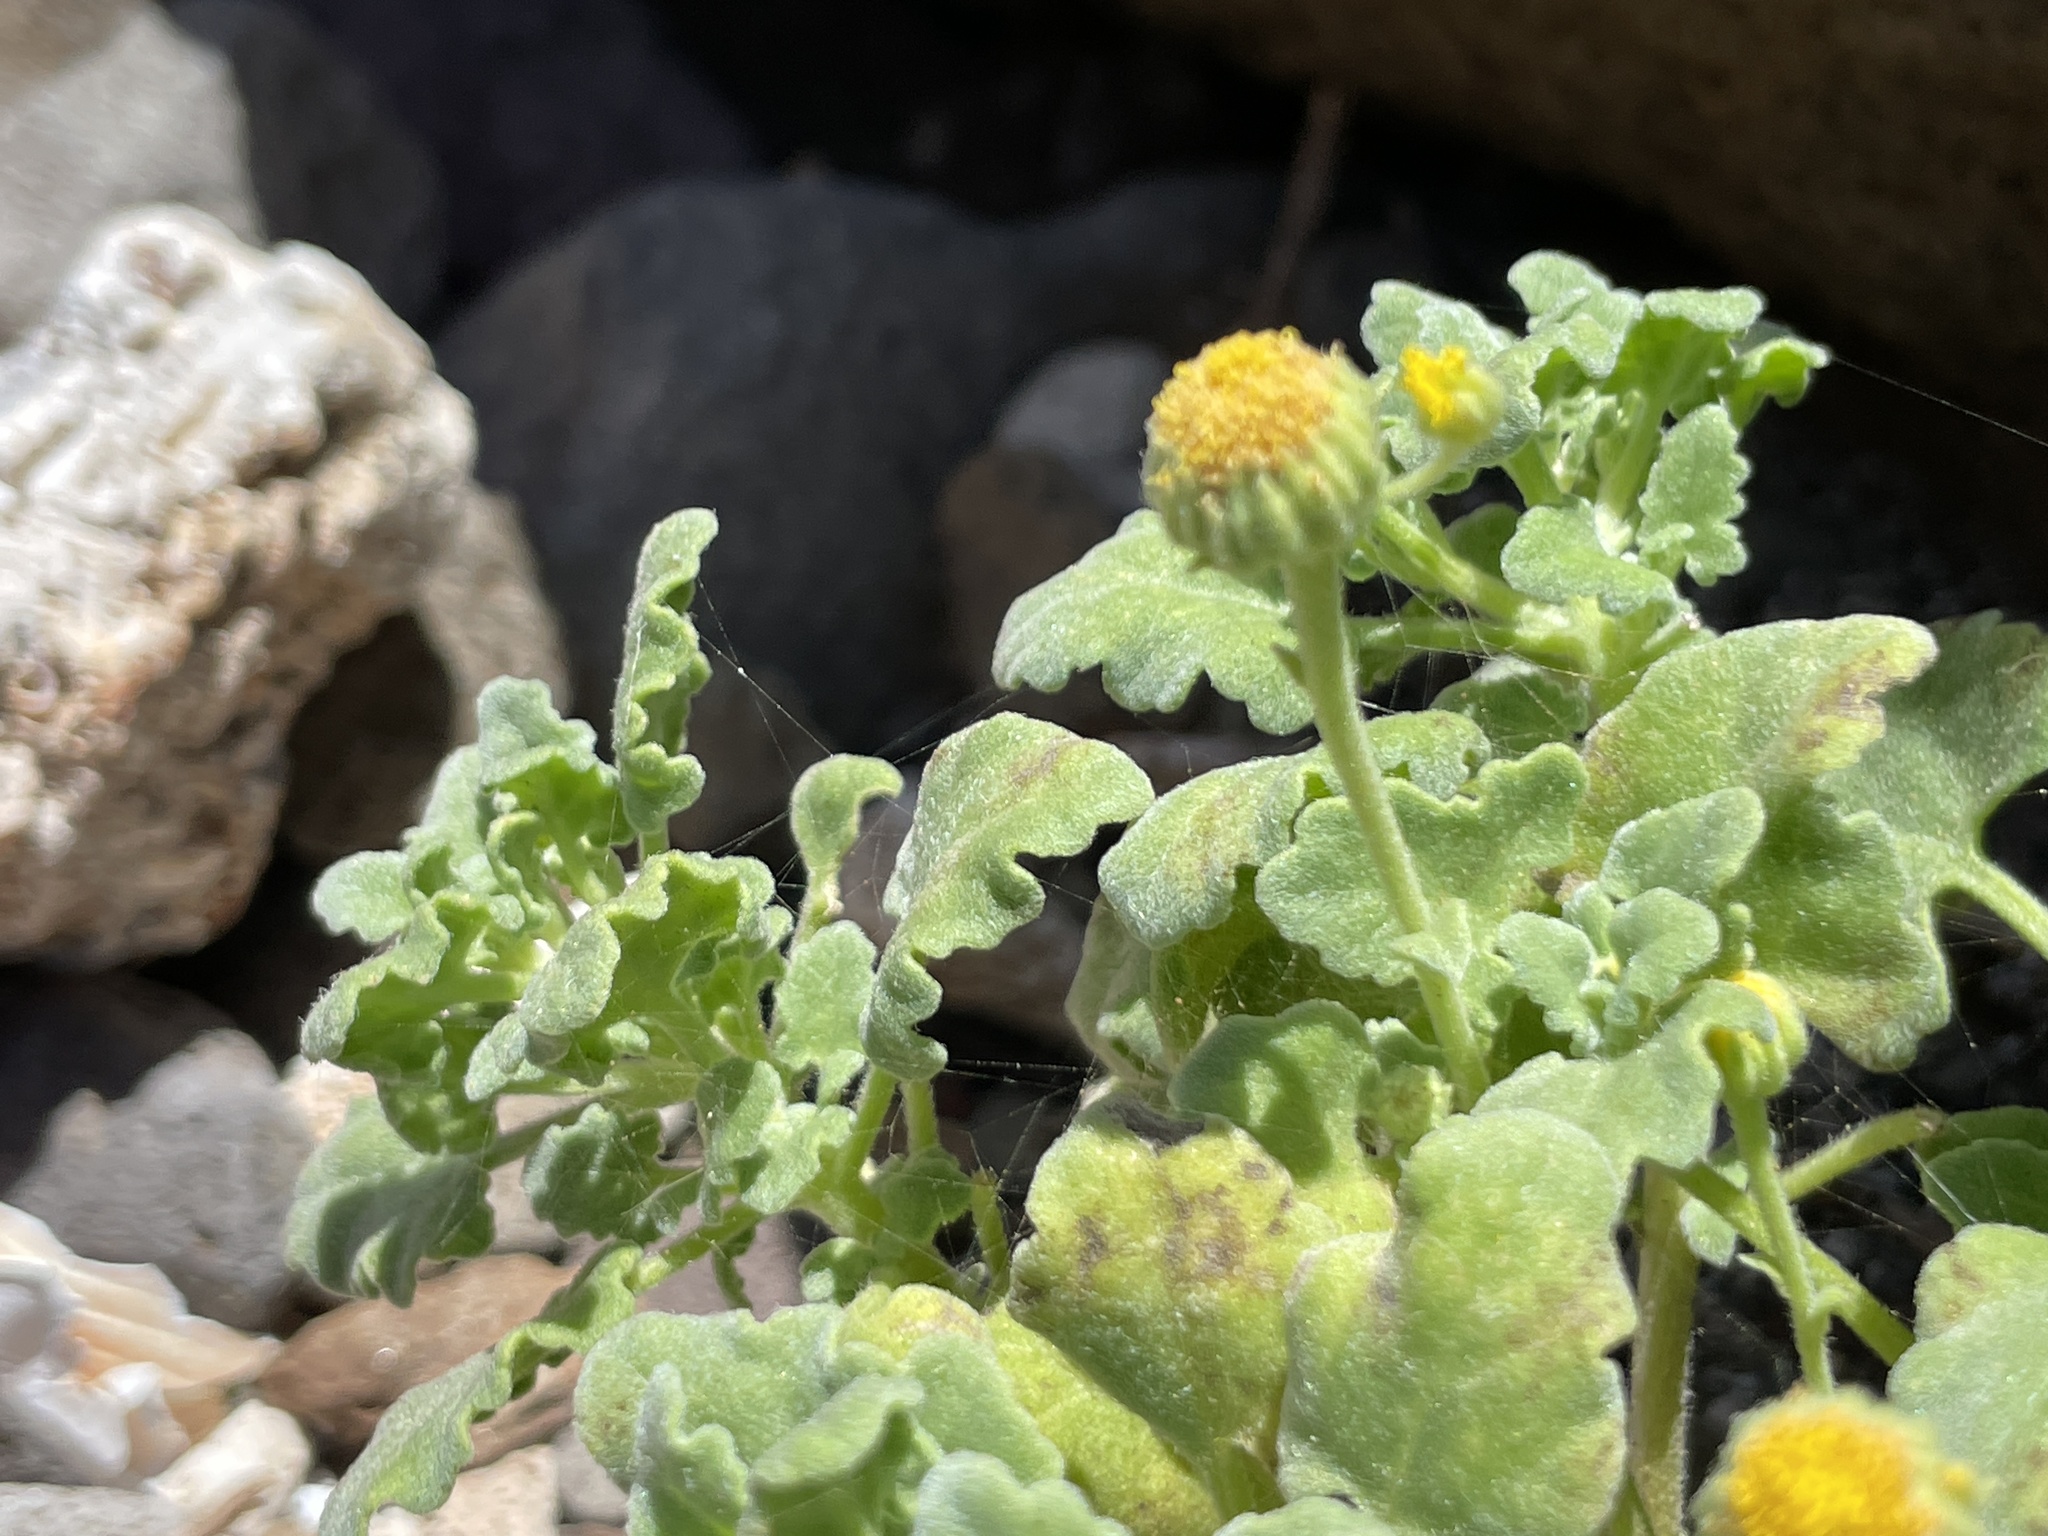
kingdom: Plantae
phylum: Tracheophyta
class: Magnoliopsida
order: Asterales
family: Asteraceae
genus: Perityle
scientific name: Perityle socorrosensis
